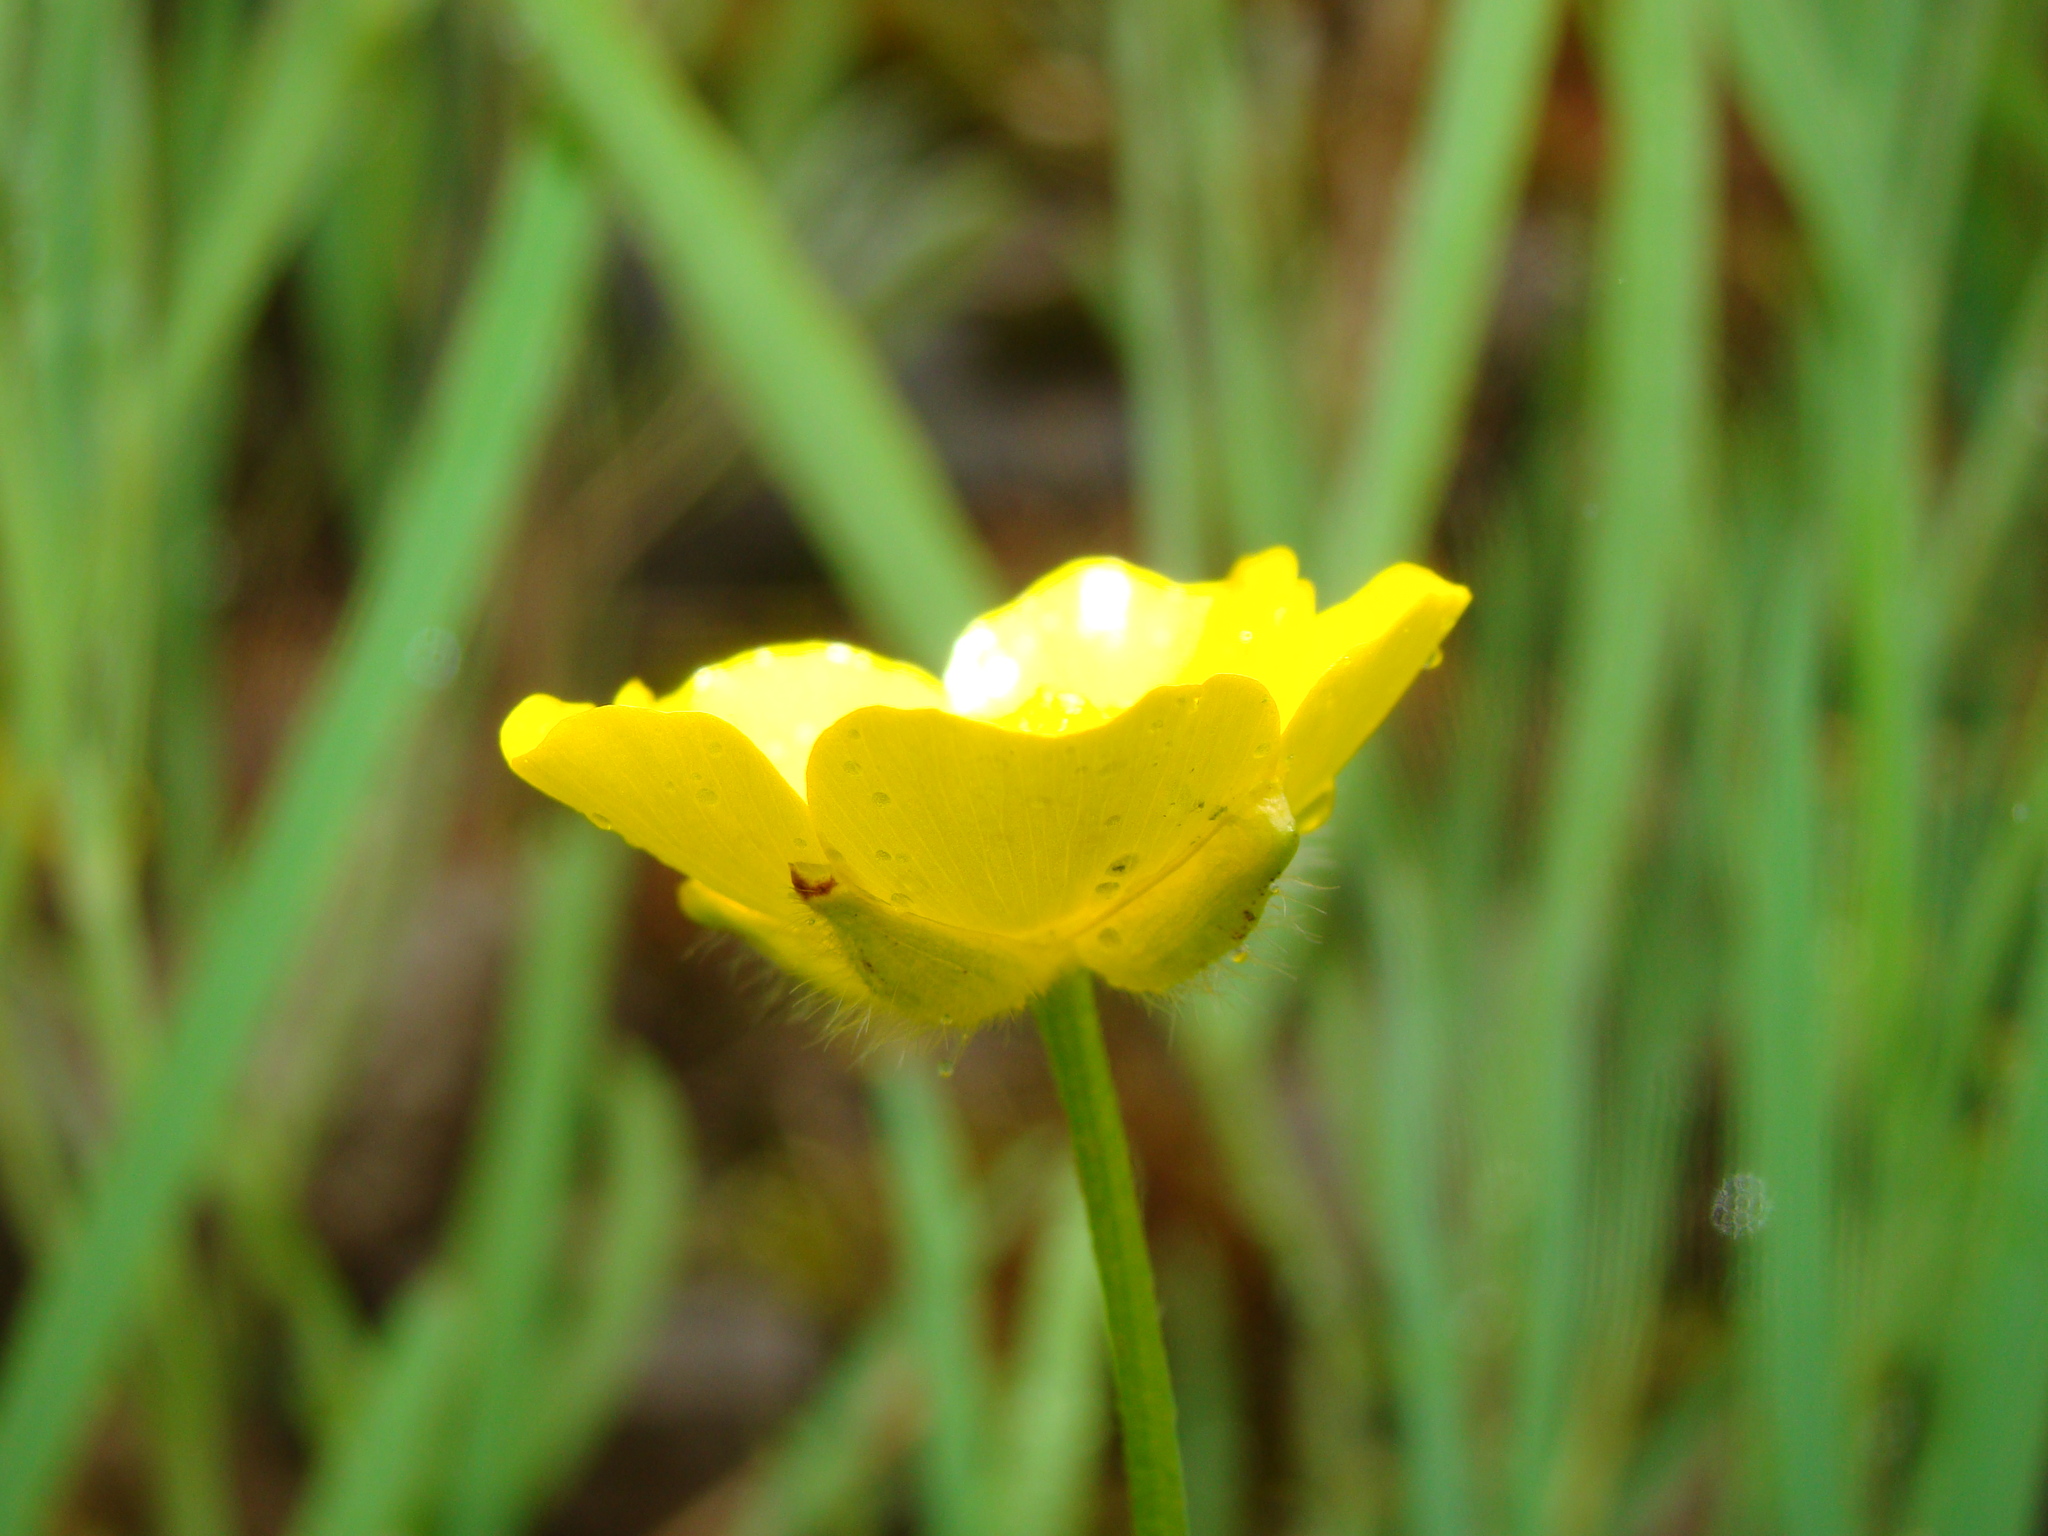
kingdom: Plantae
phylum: Tracheophyta
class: Magnoliopsida
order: Ranunculales
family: Ranunculaceae
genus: Ranunculus
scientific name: Ranunculus polyanthemos
